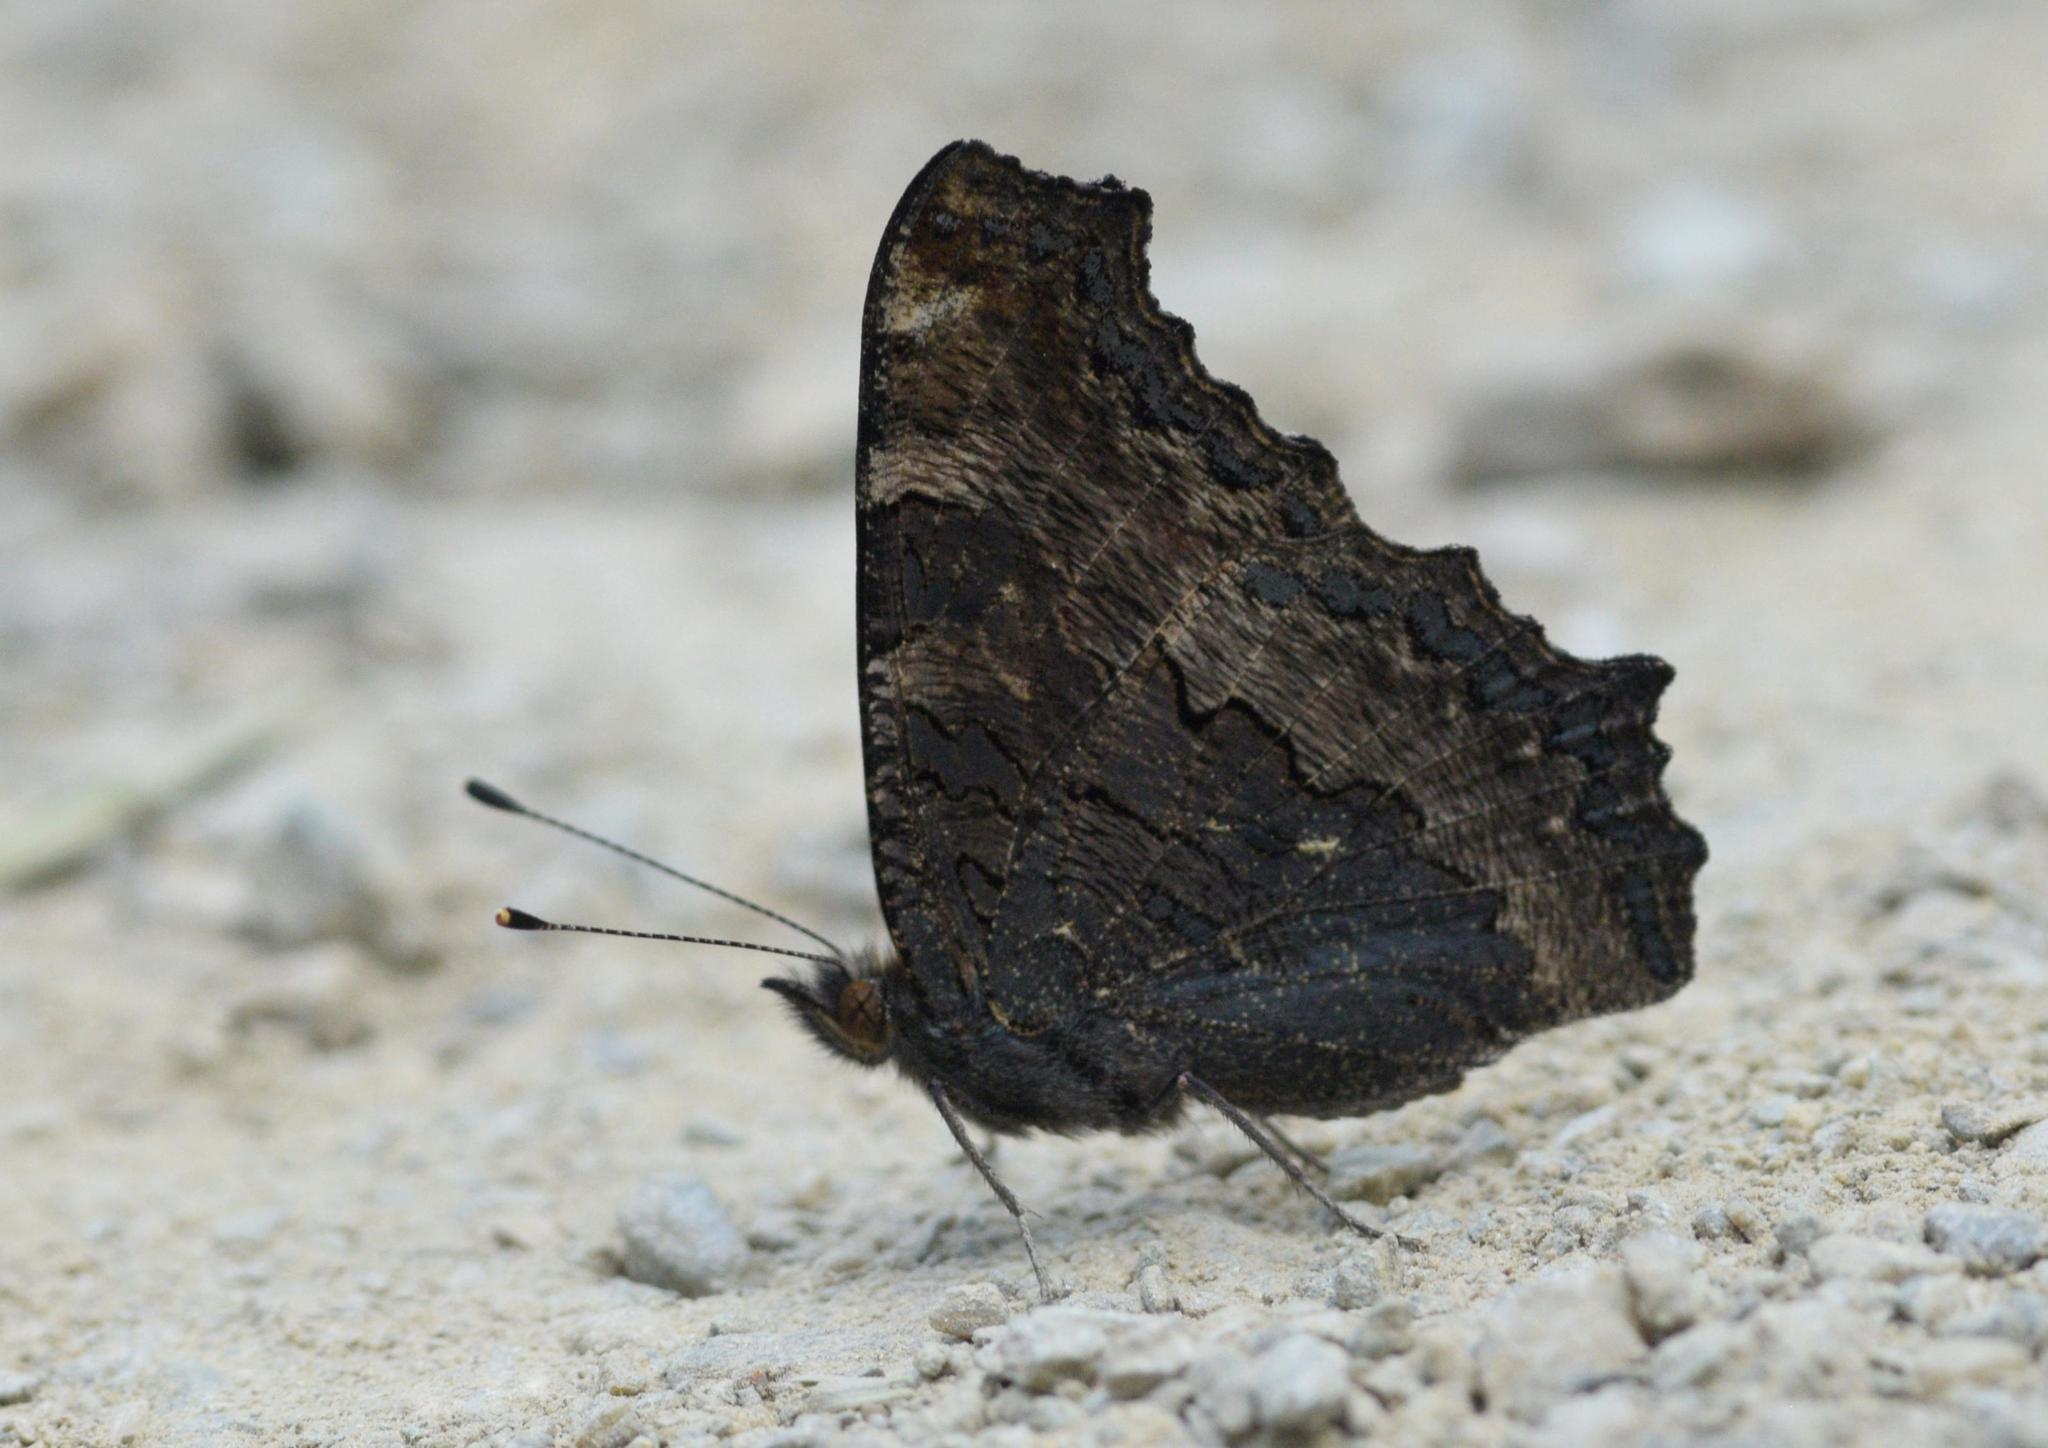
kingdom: Animalia
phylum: Arthropoda
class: Insecta
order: Lepidoptera
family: Nymphalidae
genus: Aglais
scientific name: Aglais caschmirensis
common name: Indian tortoiseshell
